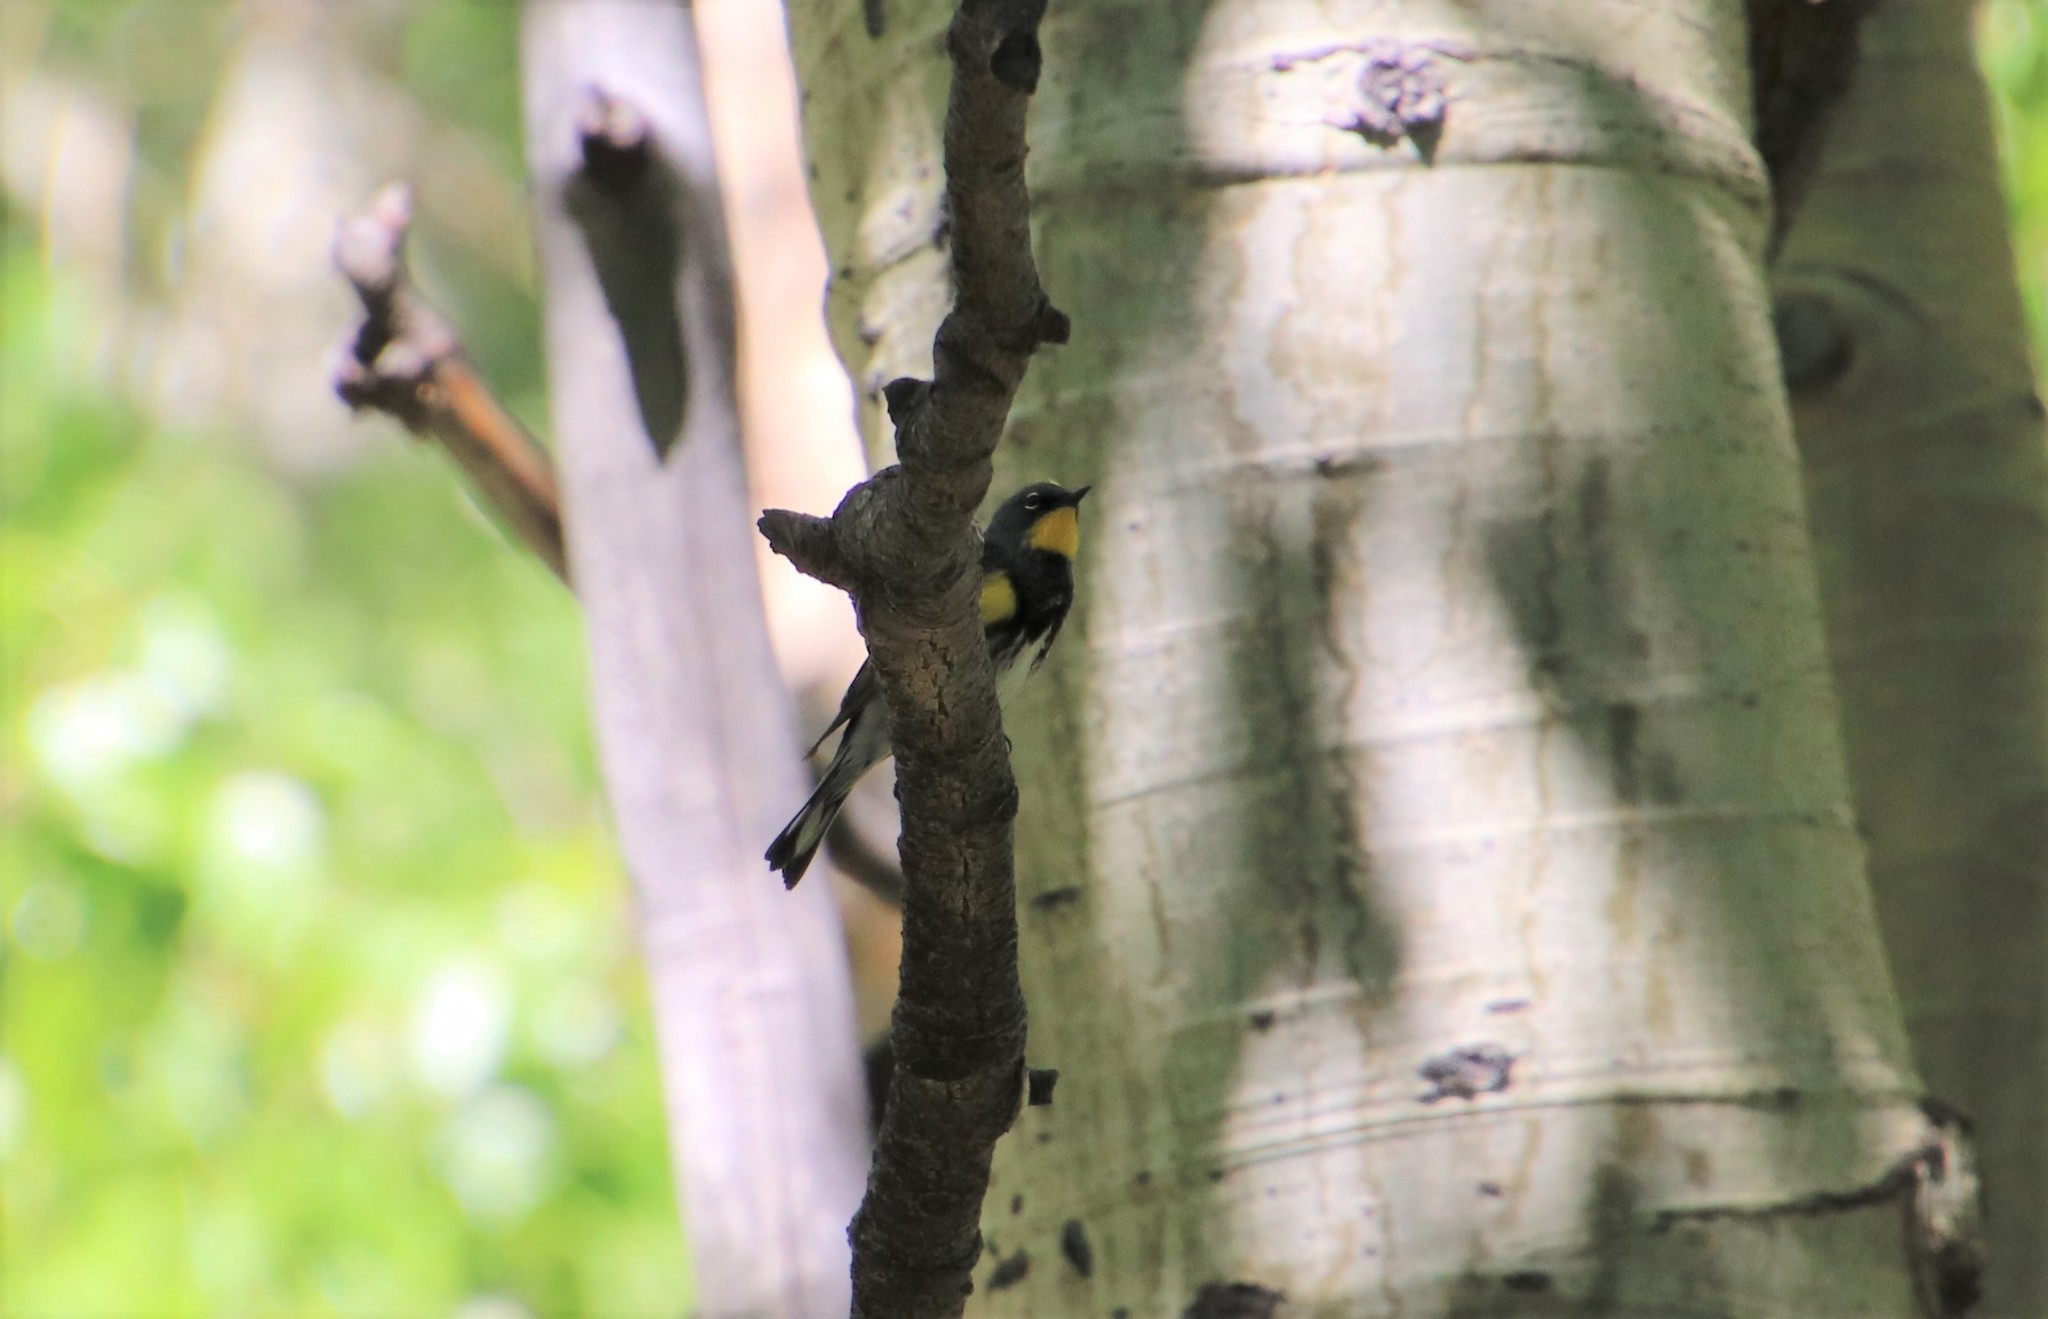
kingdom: Animalia
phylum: Chordata
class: Aves
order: Passeriformes
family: Parulidae
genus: Setophaga
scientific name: Setophaga auduboni
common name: Audubon's warbler
